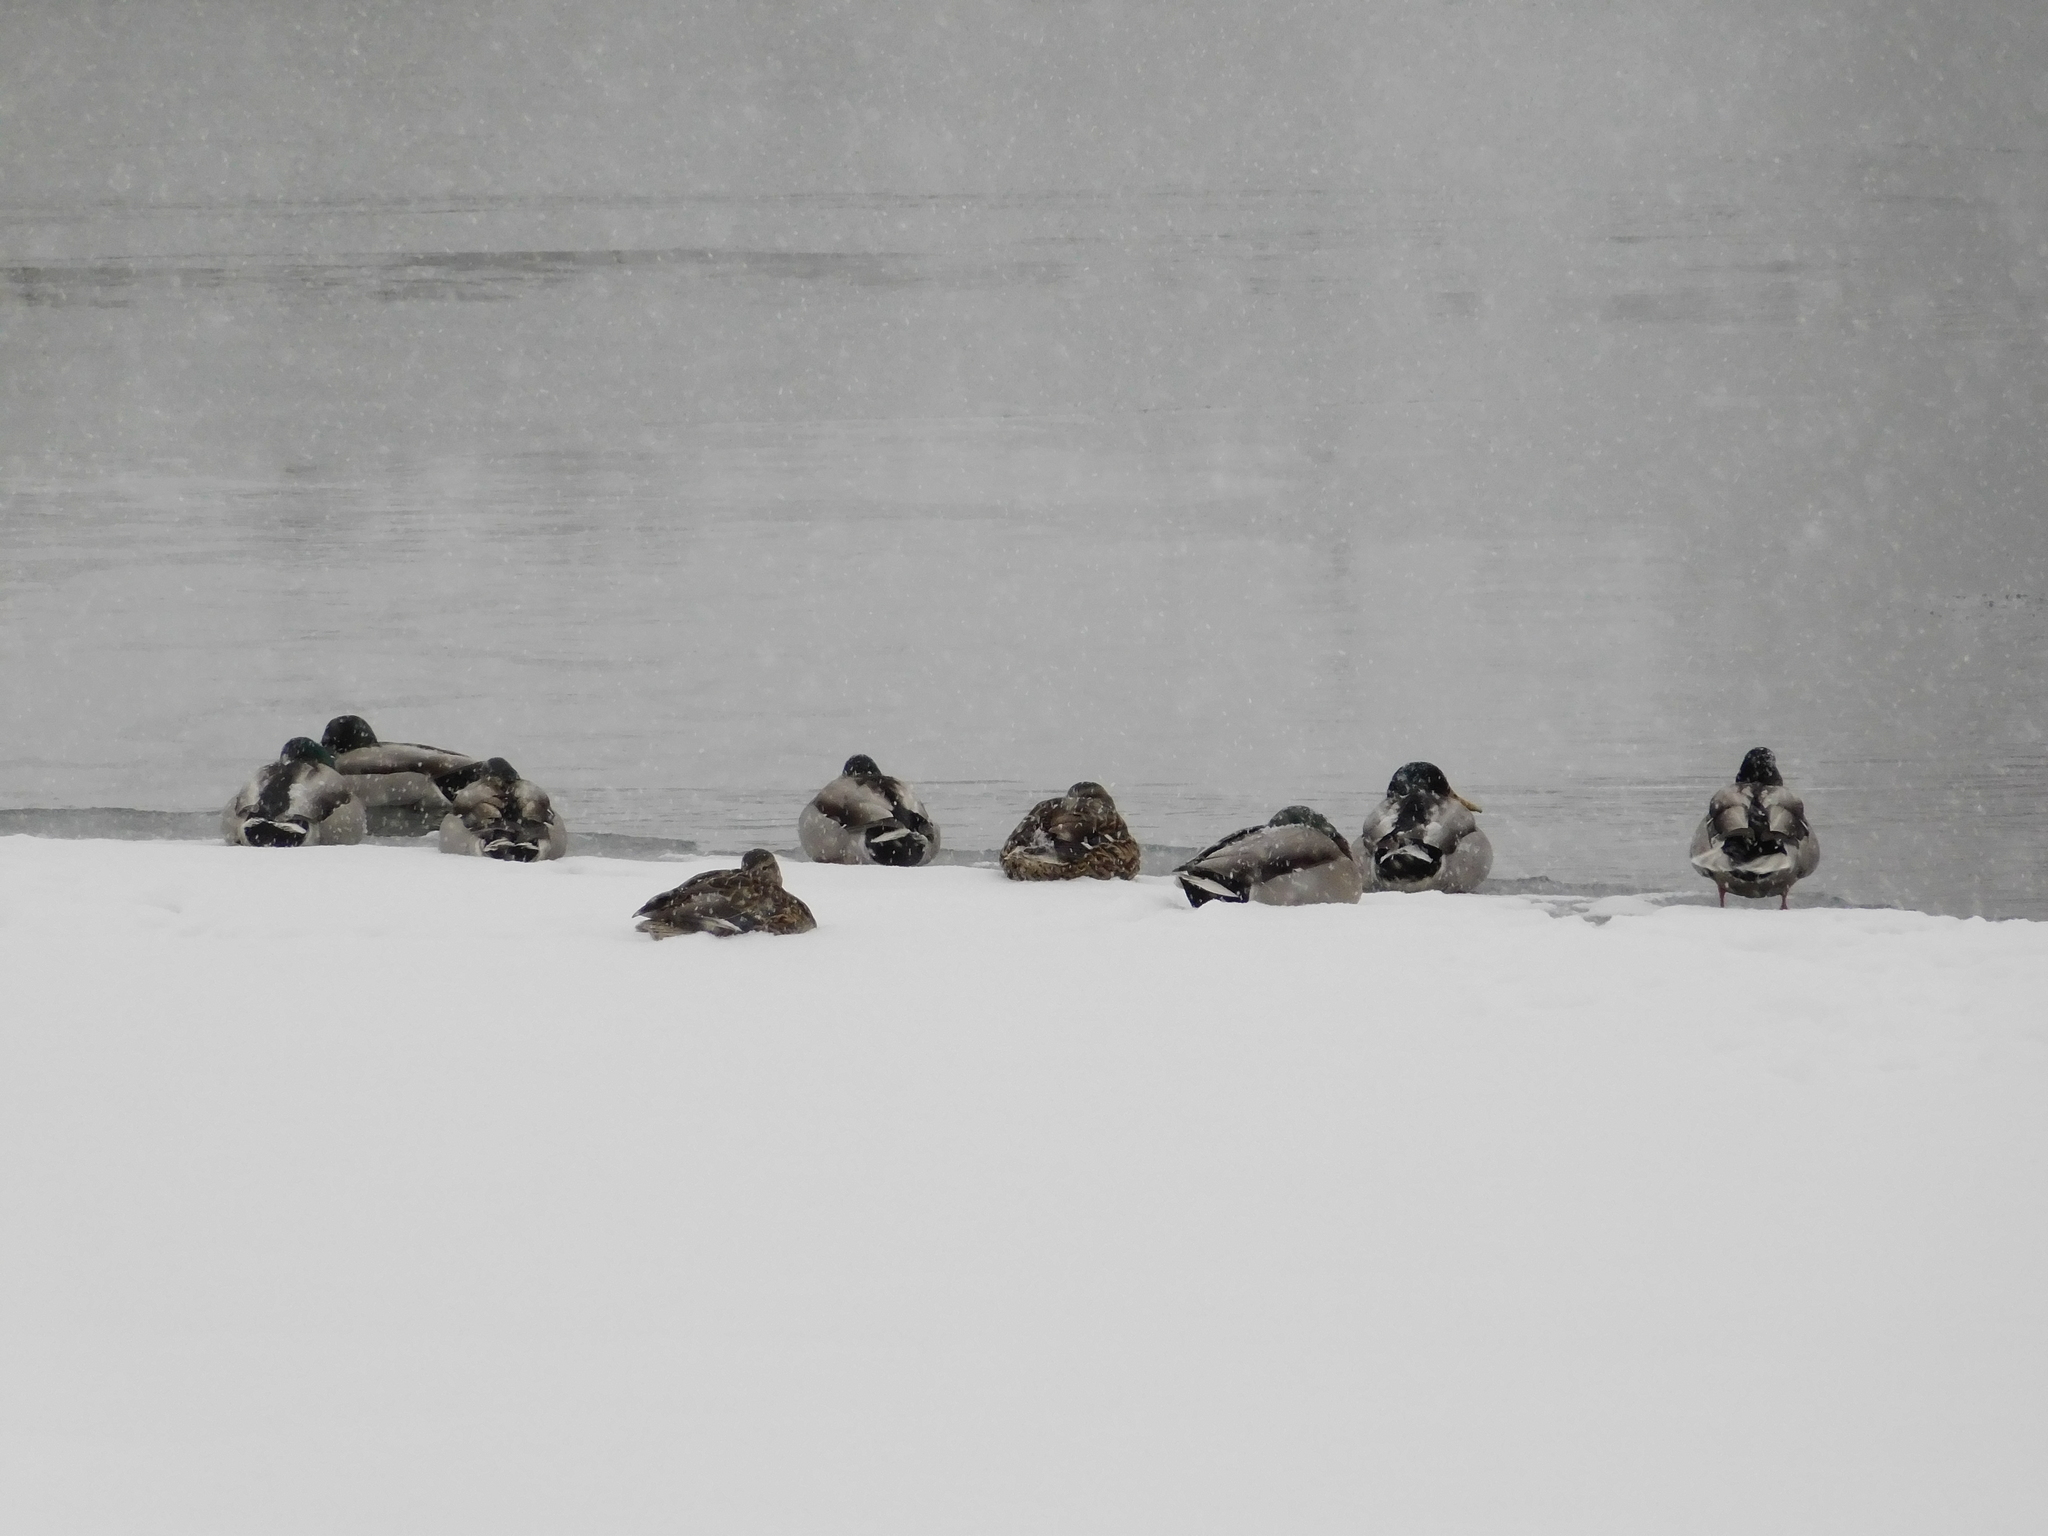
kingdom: Animalia
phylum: Chordata
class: Aves
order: Anseriformes
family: Anatidae
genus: Anas
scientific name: Anas platyrhynchos
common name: Mallard
